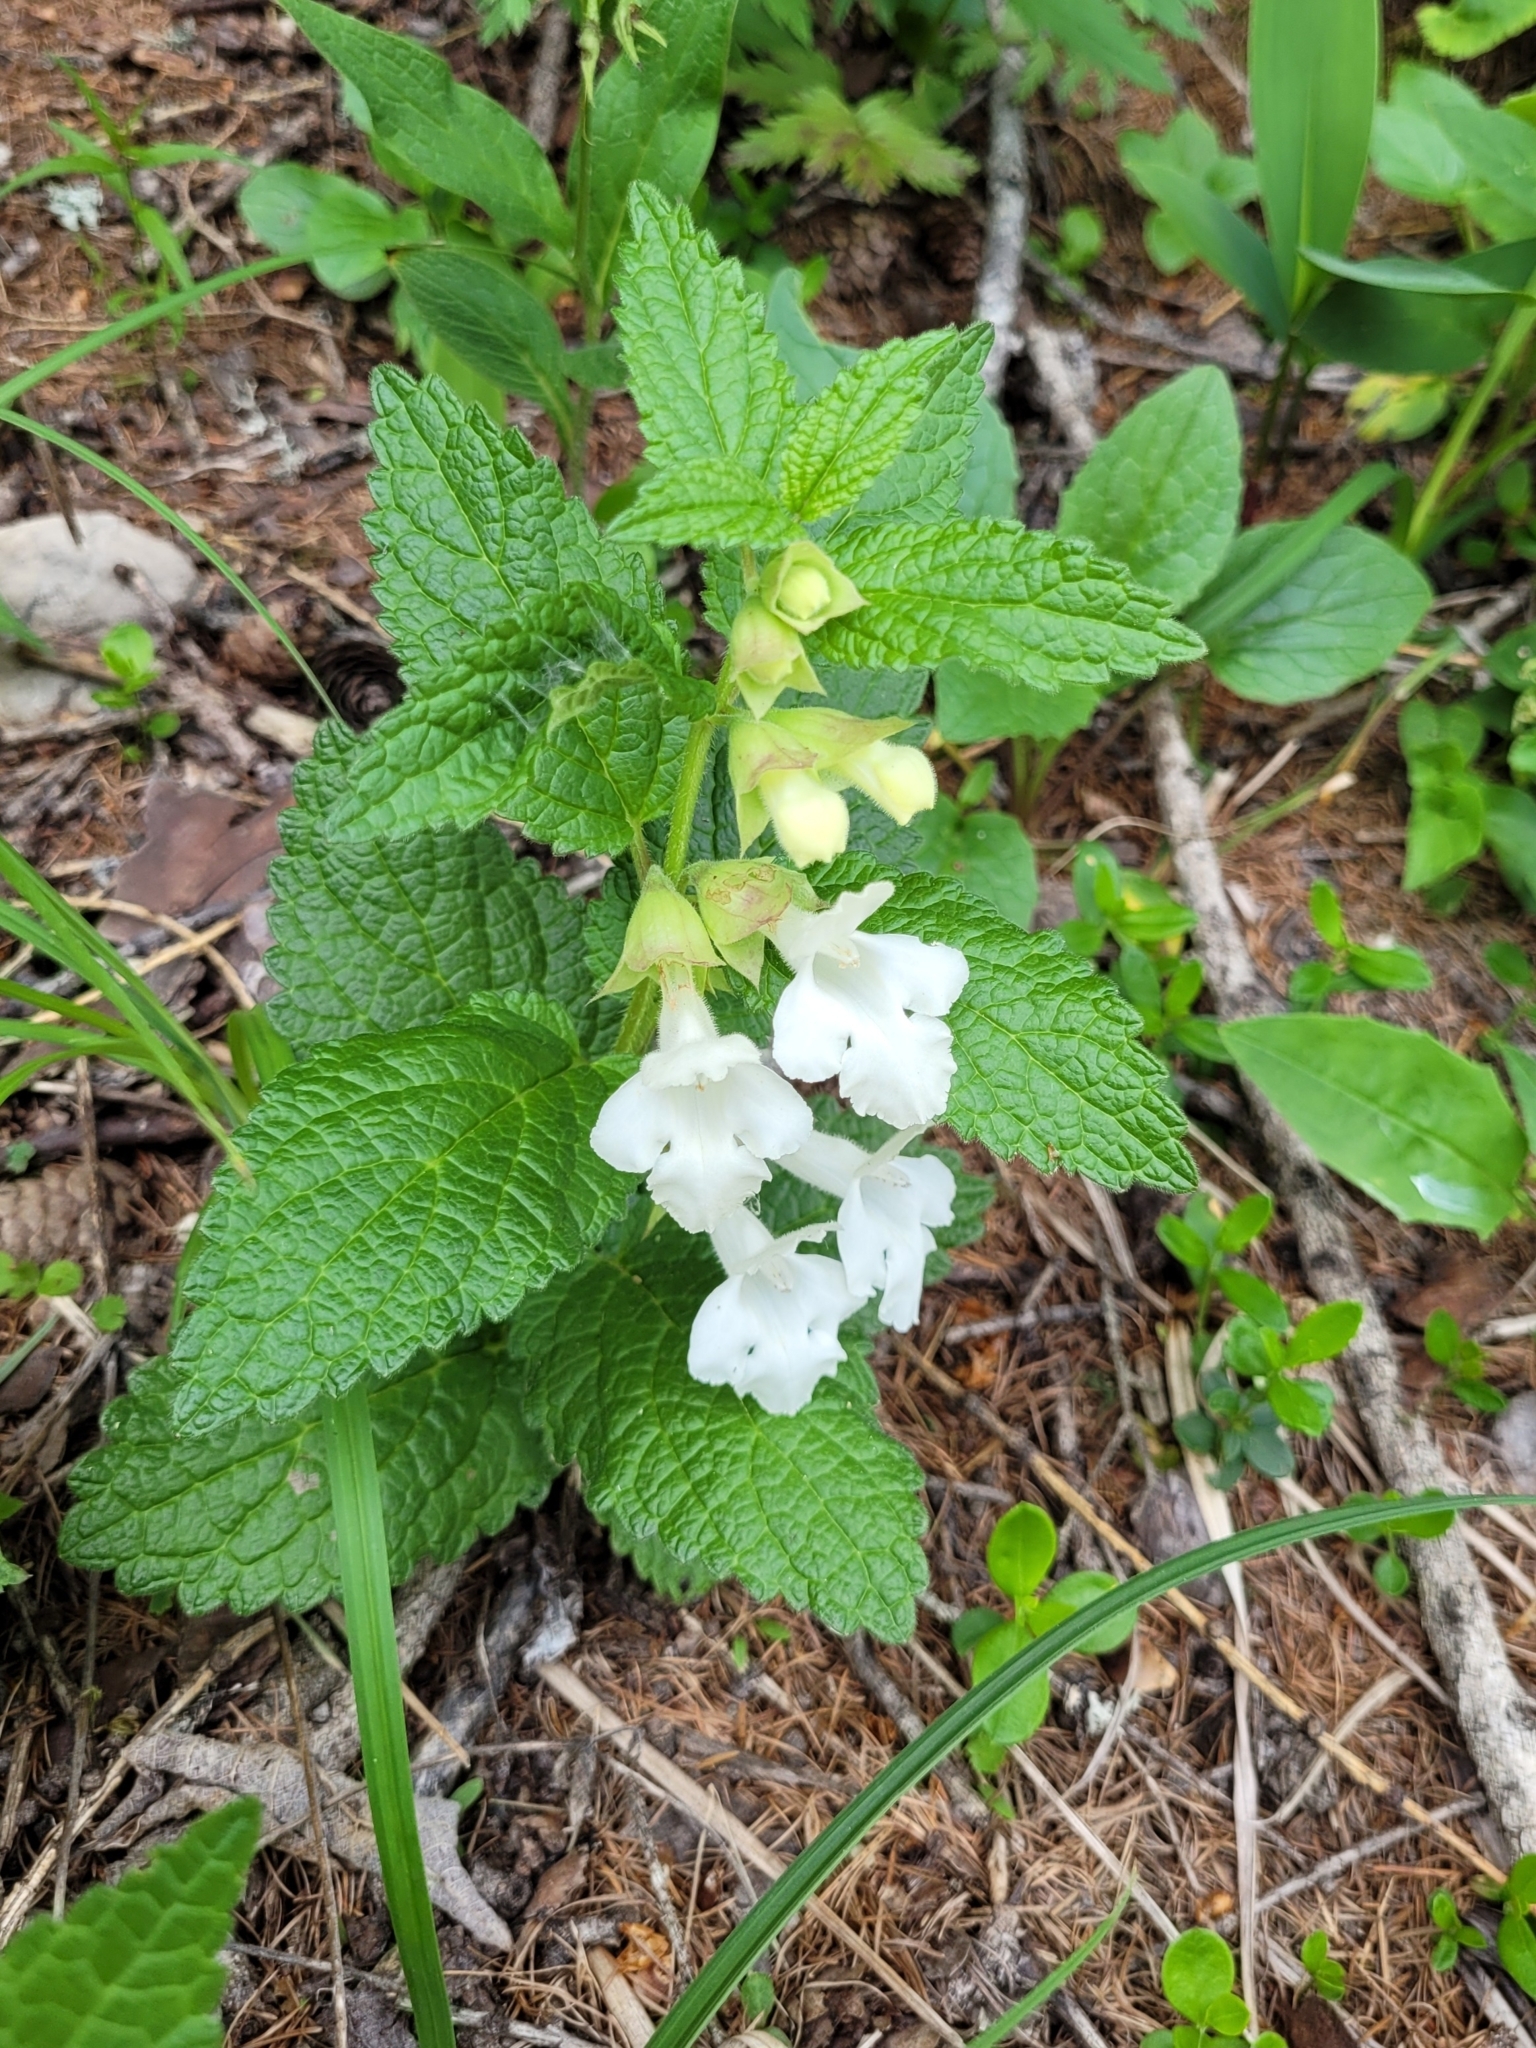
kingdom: Plantae
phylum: Tracheophyta
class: Magnoliopsida
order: Lamiales
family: Lamiaceae
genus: Melittis
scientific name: Melittis melissophyllum
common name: Bastard balm
